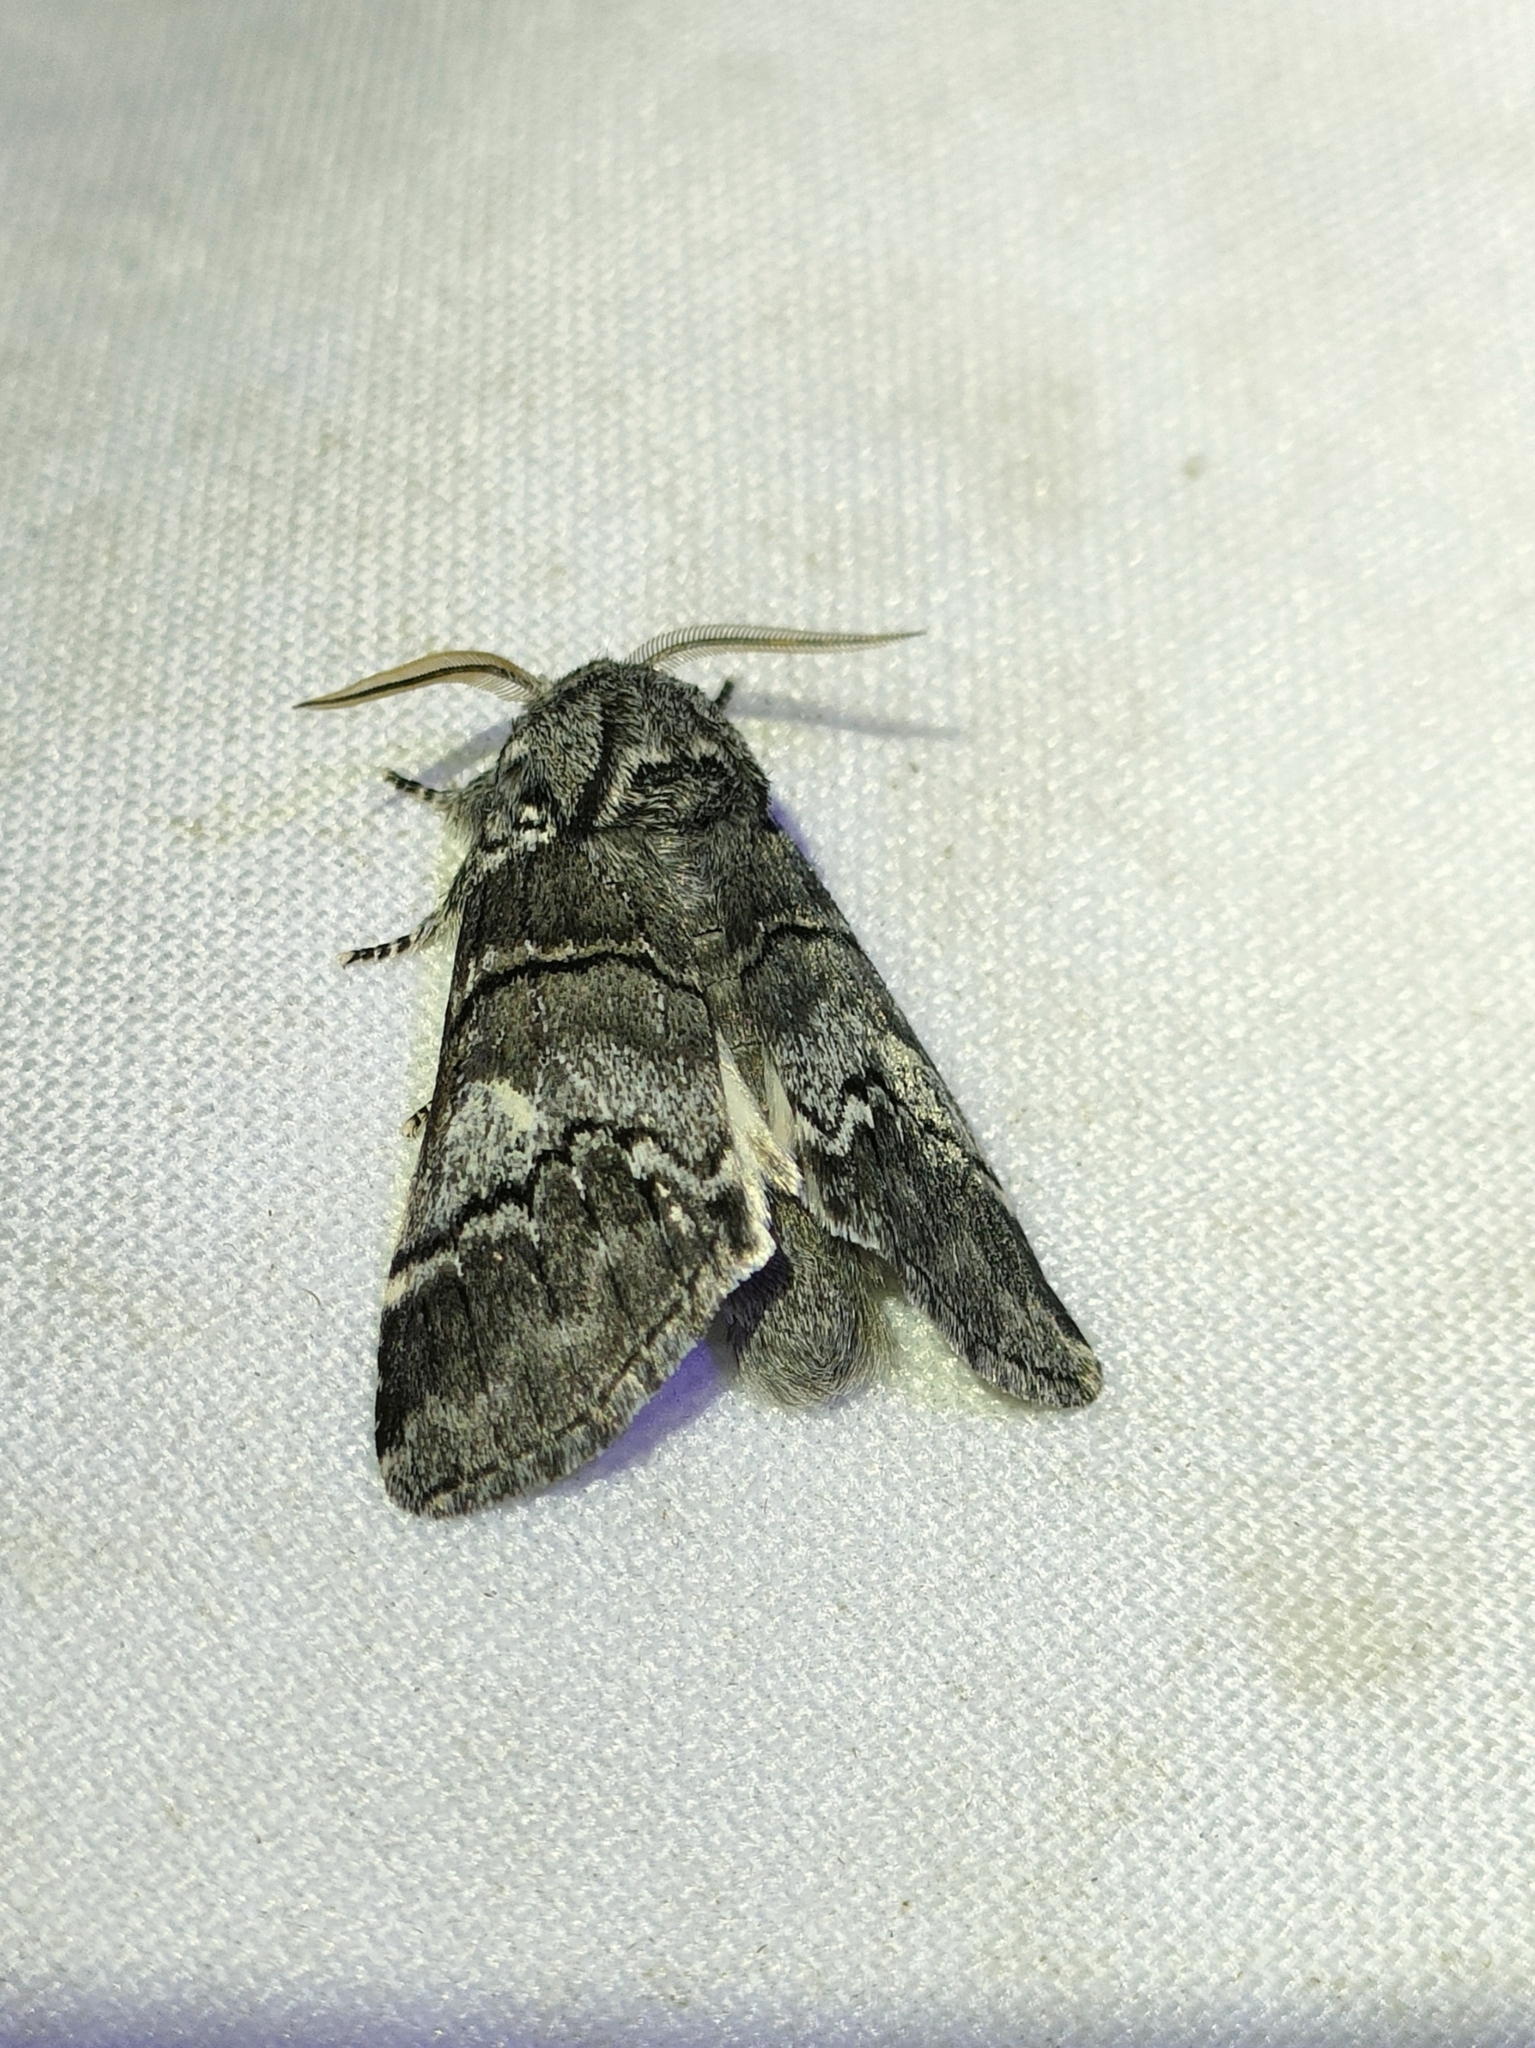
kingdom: Animalia
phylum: Arthropoda
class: Insecta
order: Lepidoptera
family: Notodontidae
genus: Drymonia
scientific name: Drymonia querna
